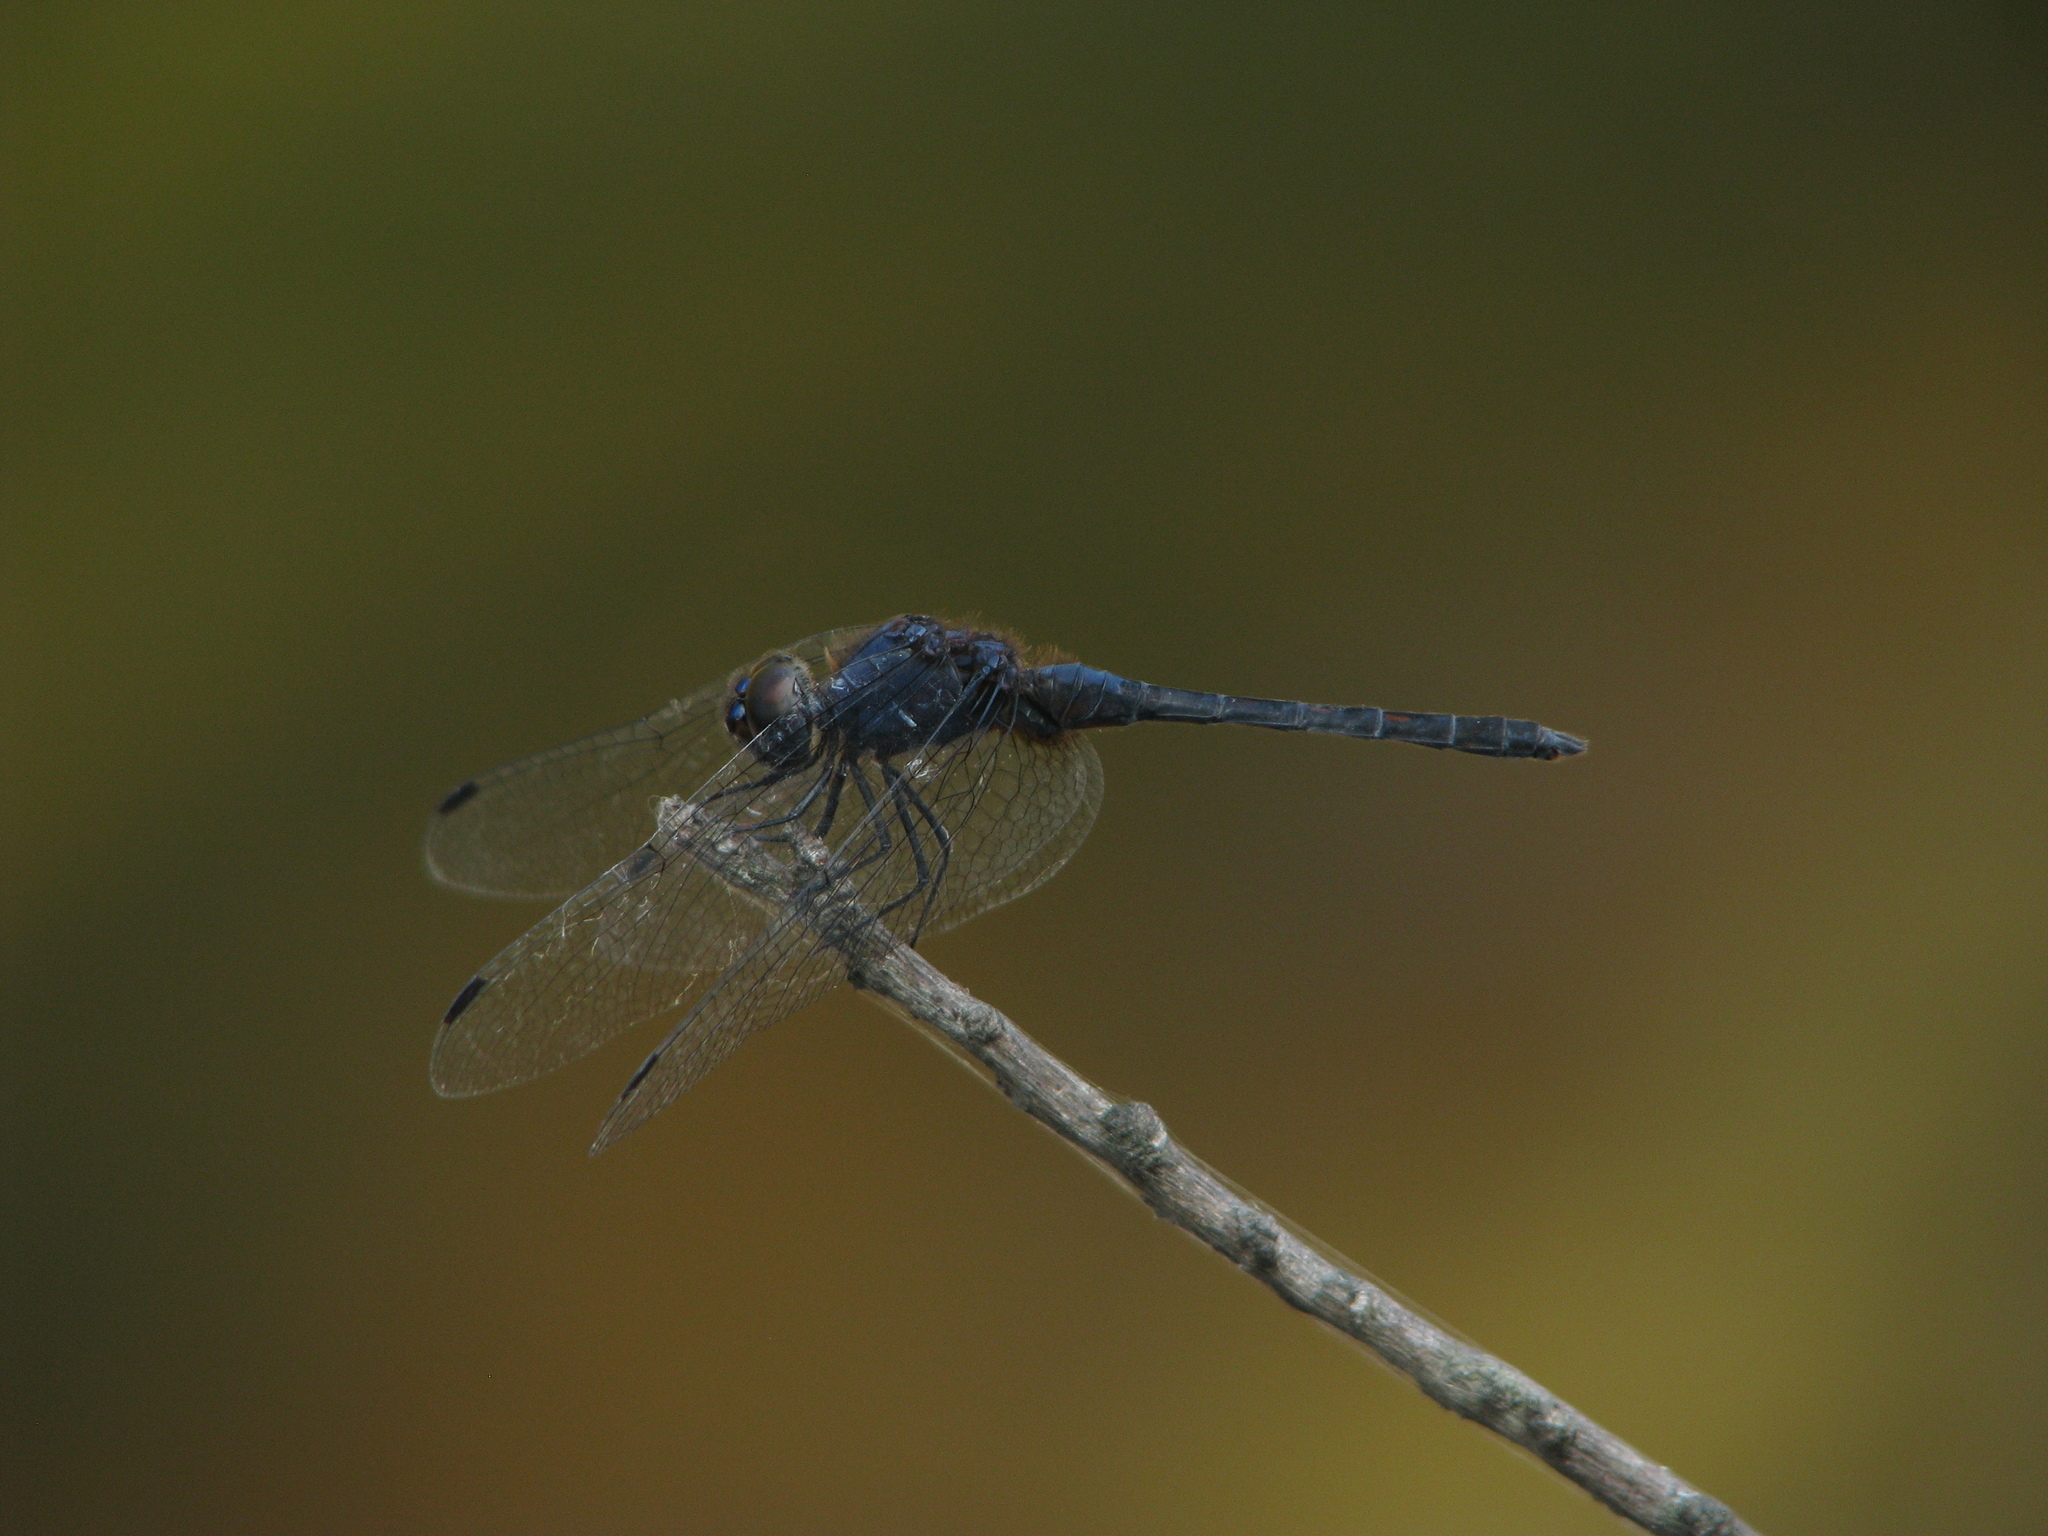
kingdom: Animalia
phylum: Arthropoda
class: Insecta
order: Odonata
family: Libellulidae
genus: Trithemis
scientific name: Trithemis festiva
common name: Indigo dropwing
